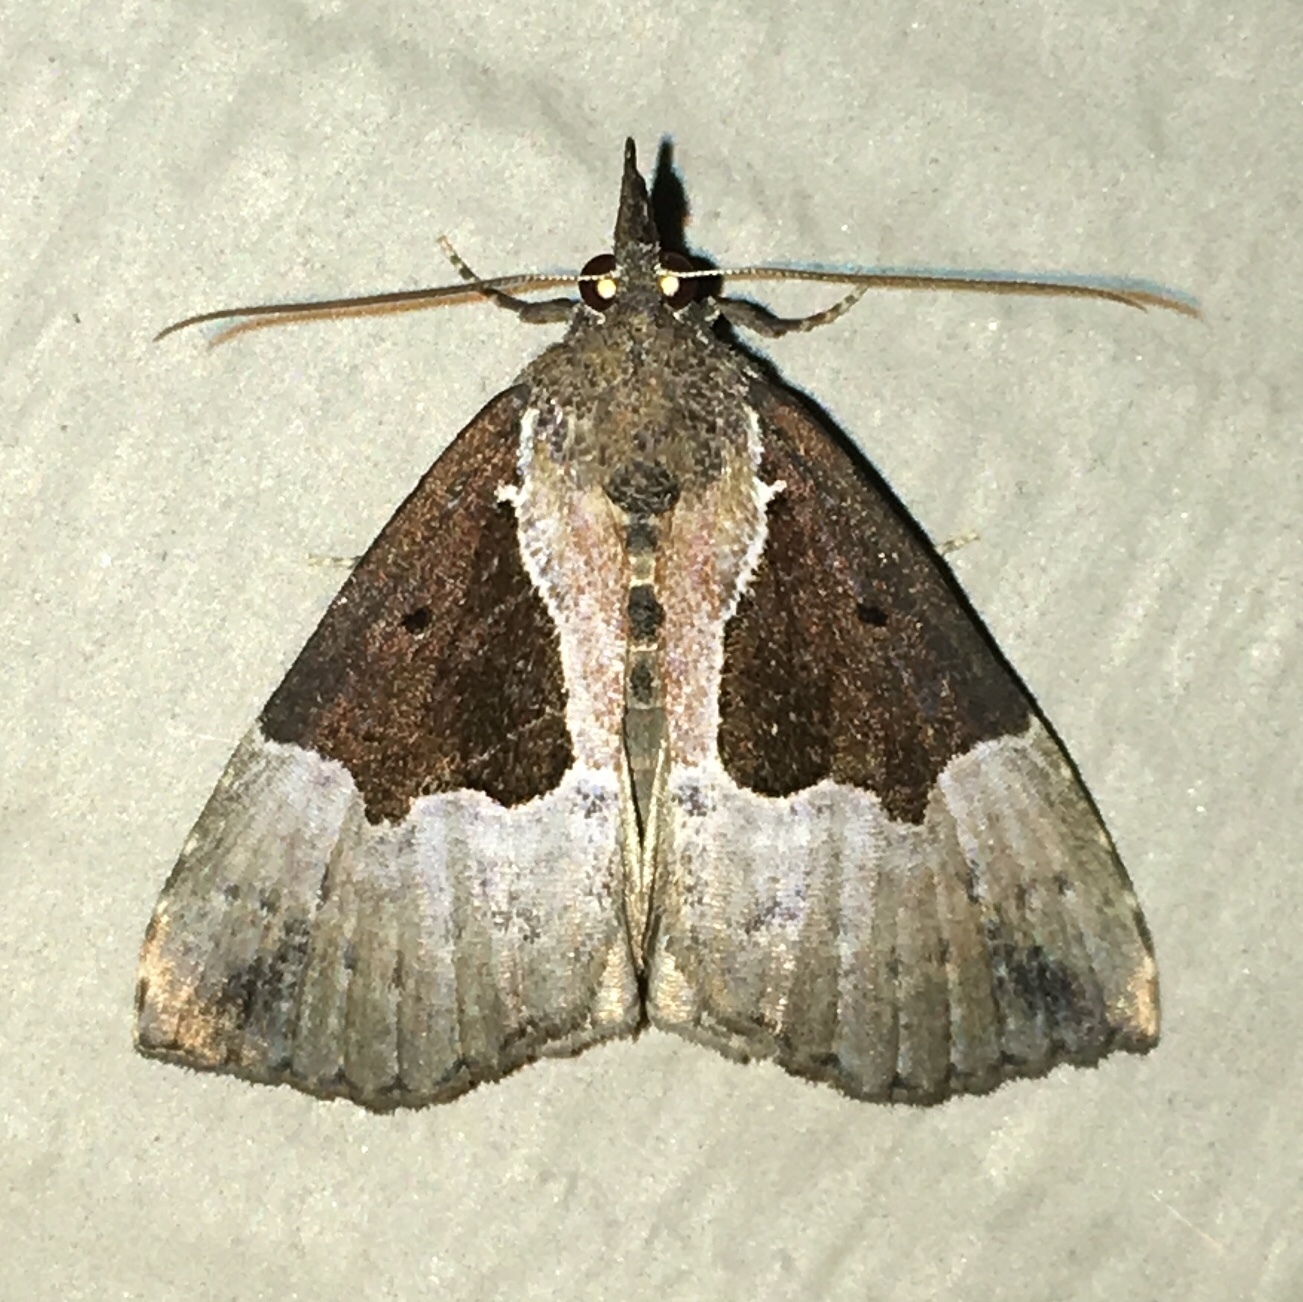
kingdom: Animalia
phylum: Arthropoda
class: Insecta
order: Lepidoptera
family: Erebidae
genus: Hypena
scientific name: Hypena bijugalis
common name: Dimorphic bomolocha moth
